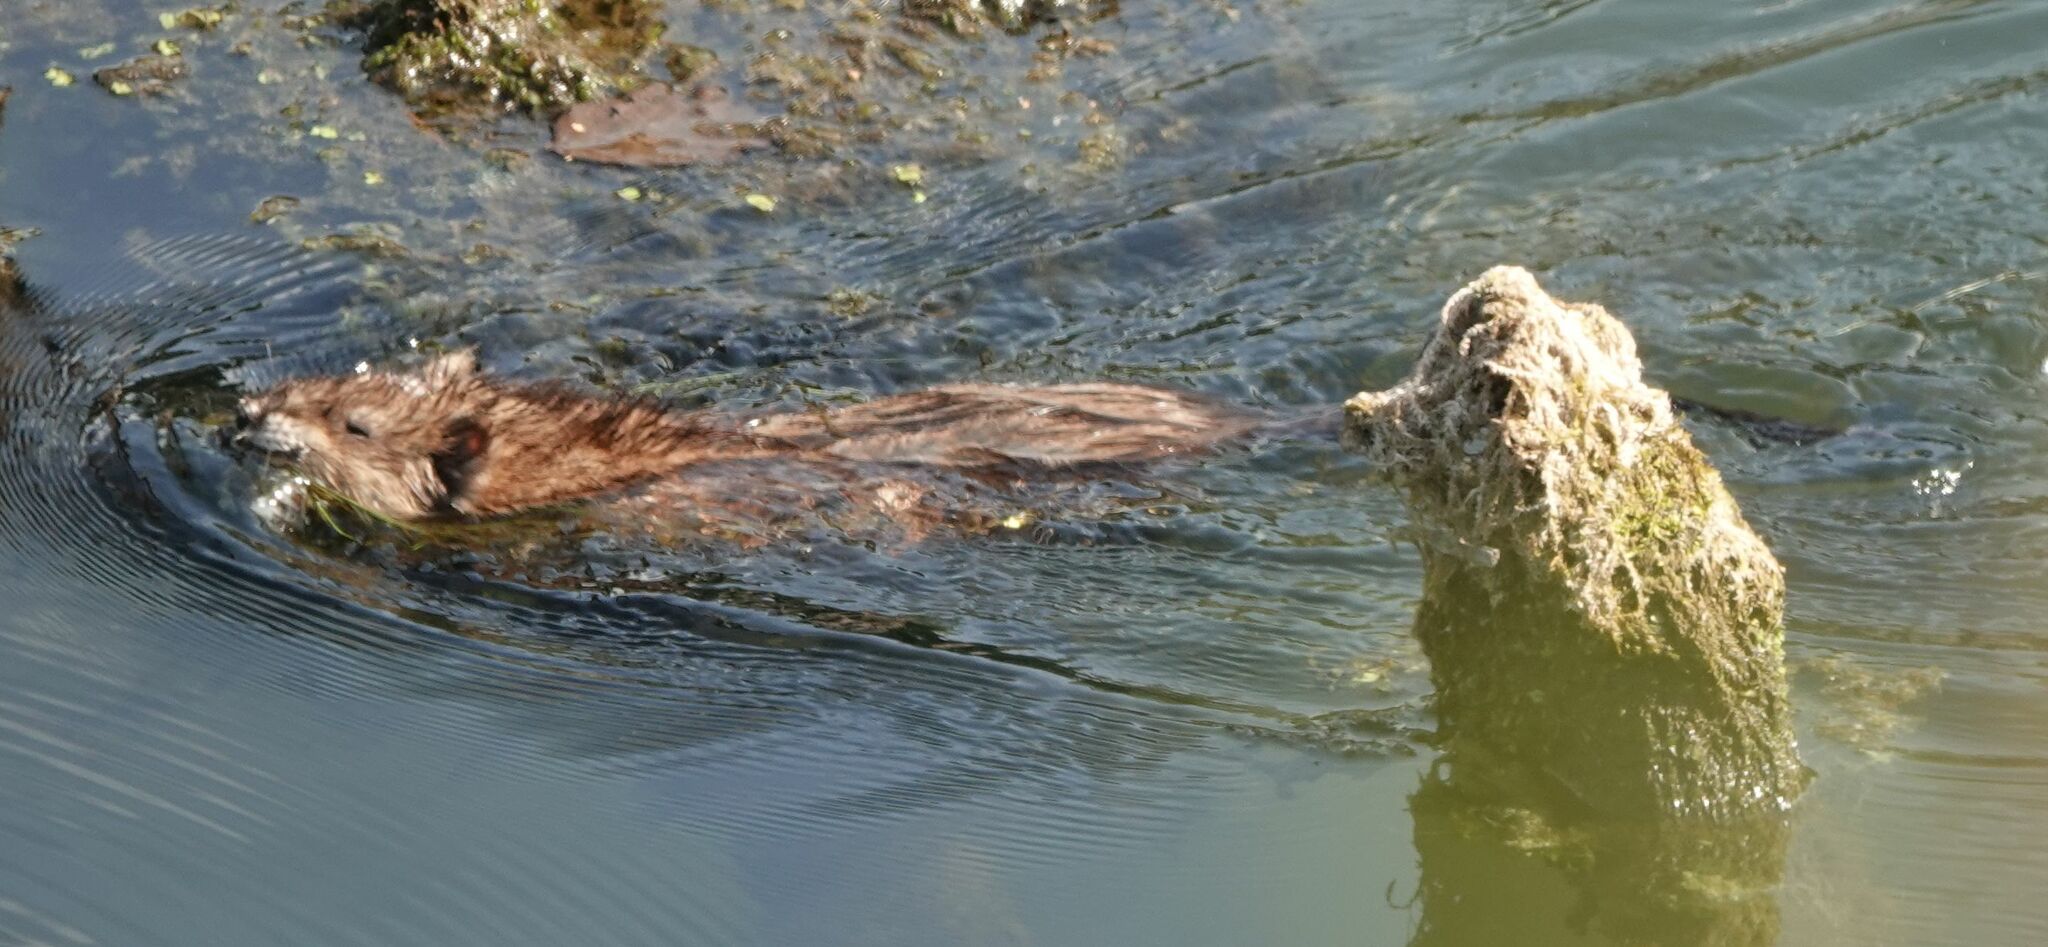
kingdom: Animalia
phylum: Chordata
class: Mammalia
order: Rodentia
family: Cricetidae
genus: Ondatra
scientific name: Ondatra zibethicus
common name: Muskrat
